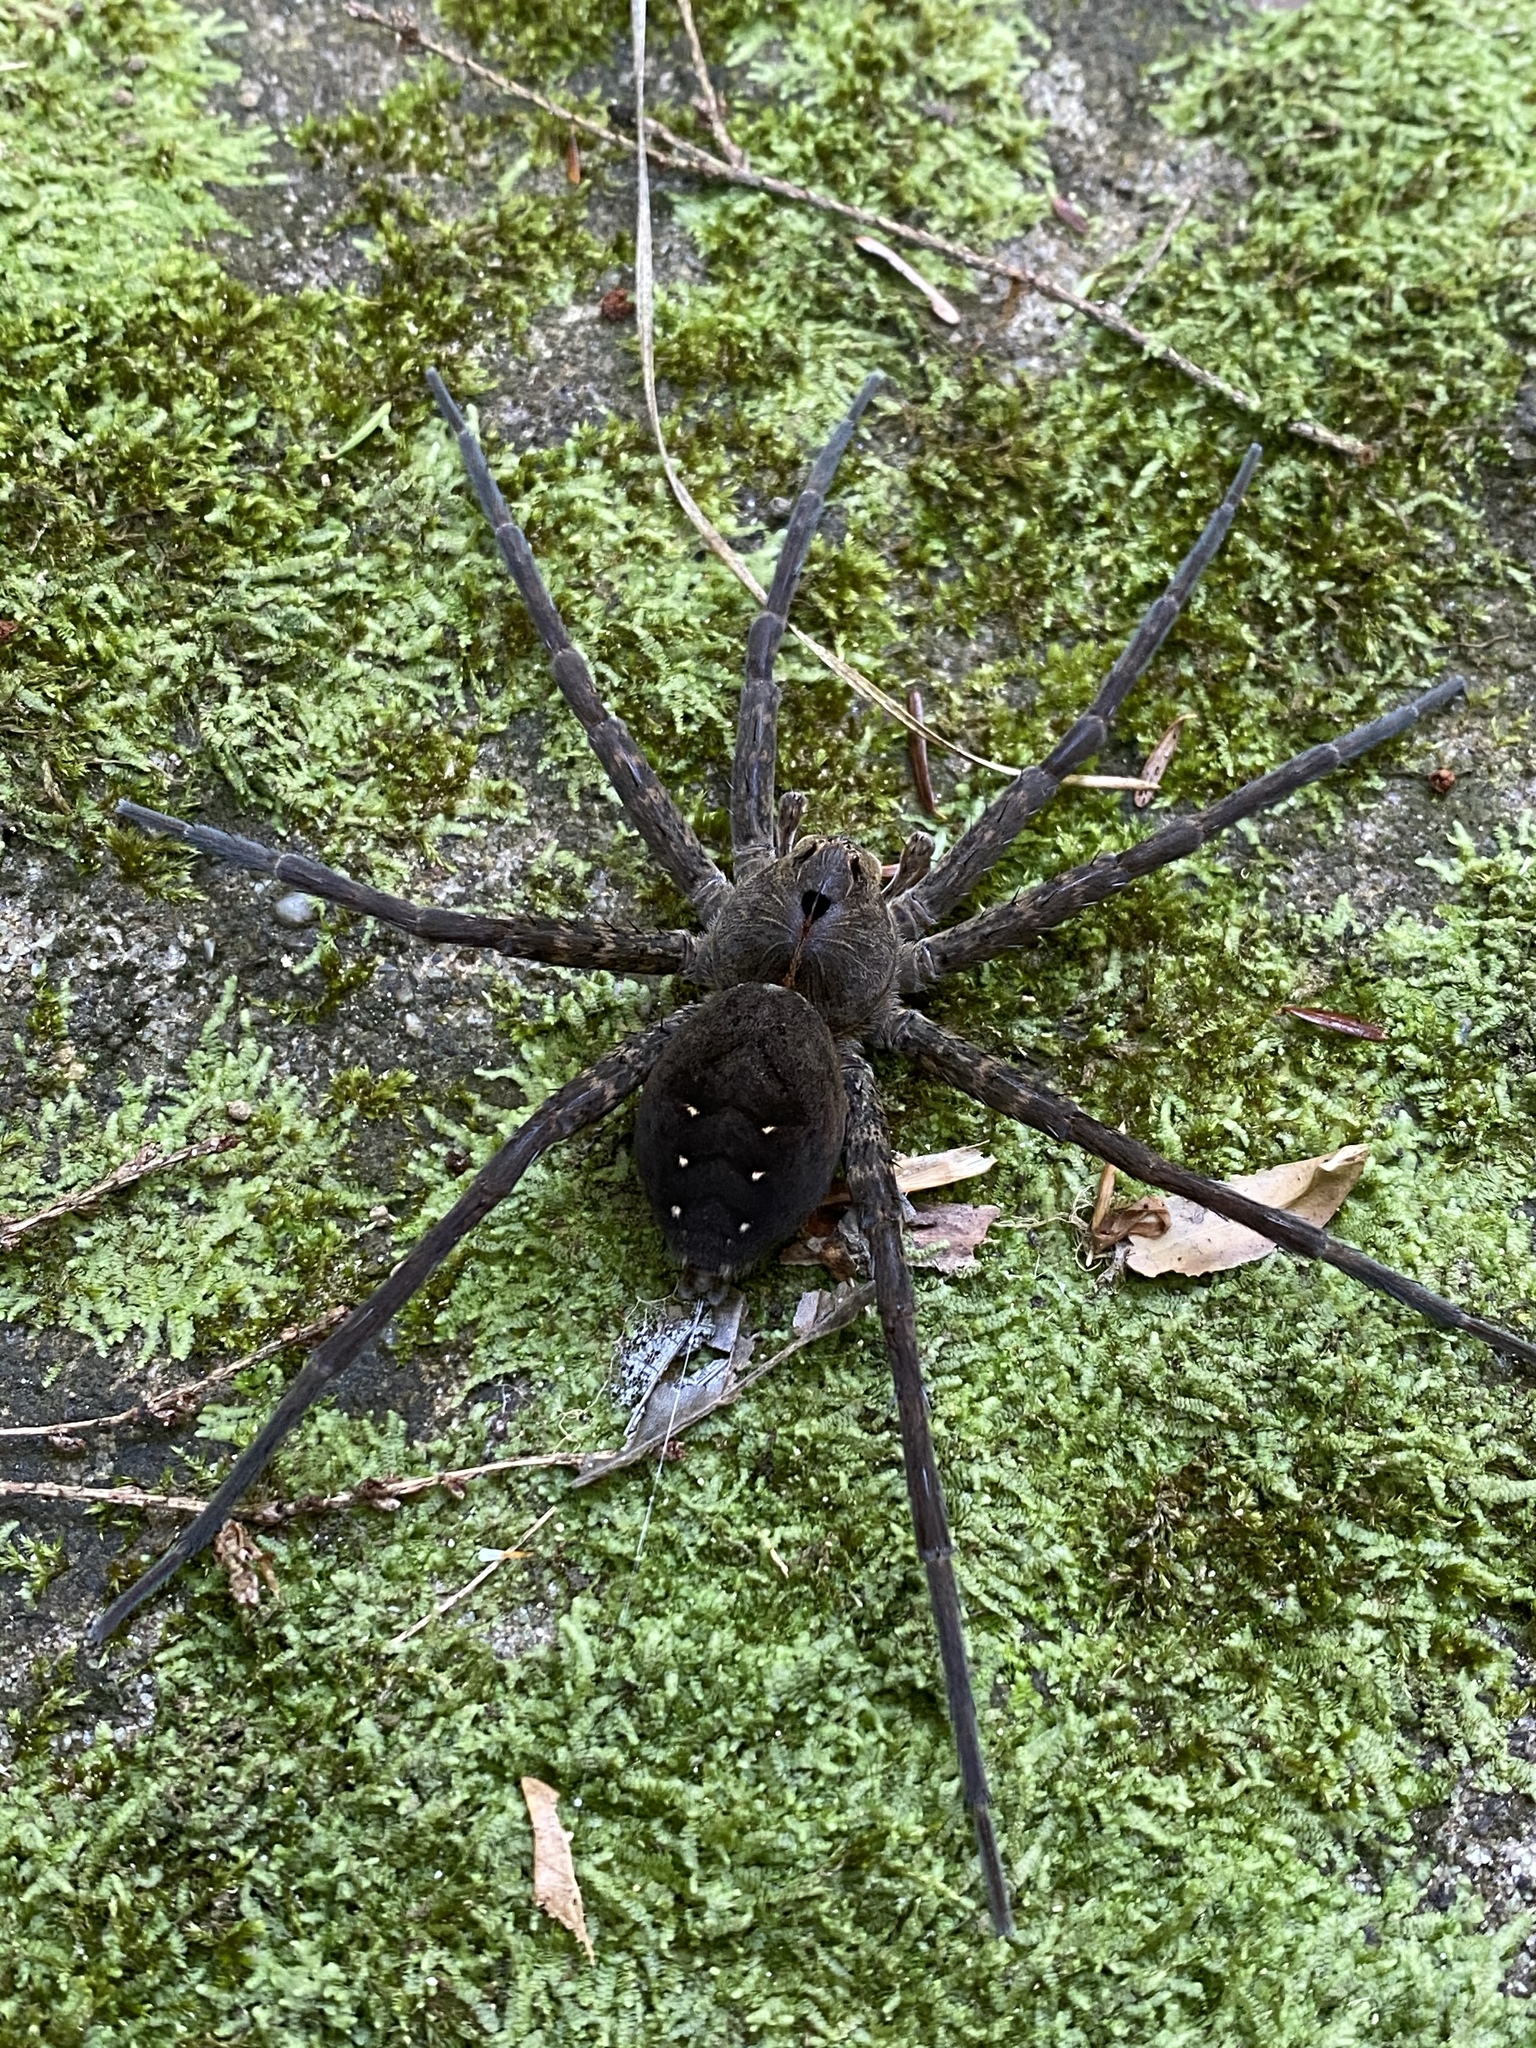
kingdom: Animalia
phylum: Arthropoda
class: Arachnida
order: Araneae
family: Pisauridae
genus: Dolomedes
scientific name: Dolomedes vittatus
